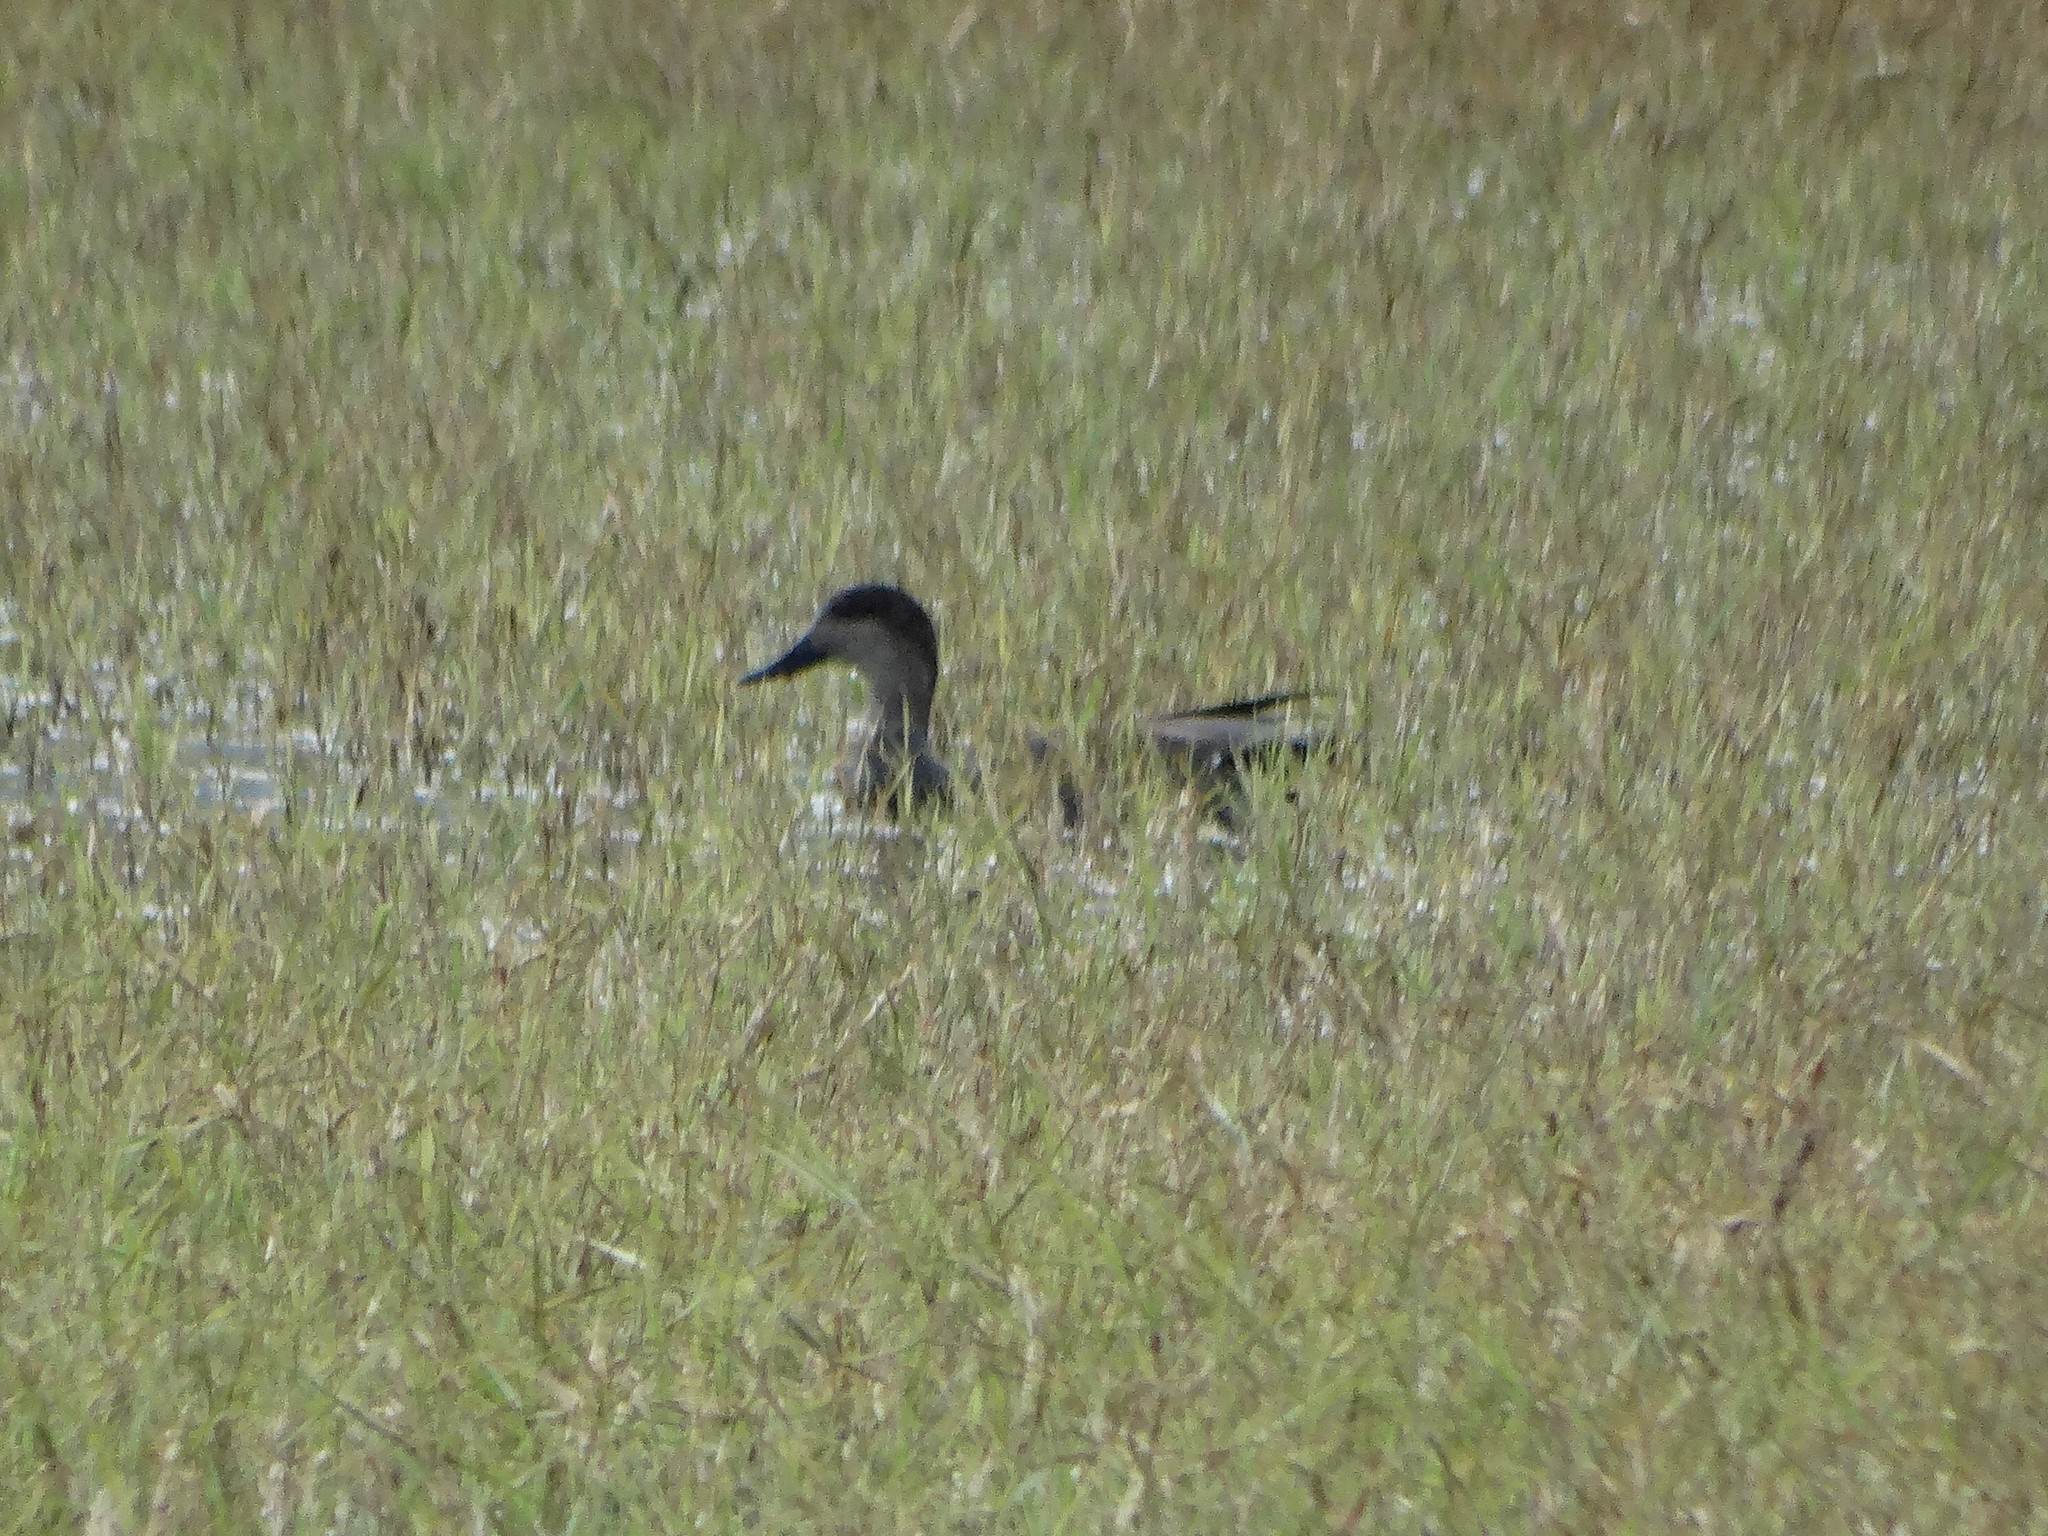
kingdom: Animalia
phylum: Chordata
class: Aves
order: Anseriformes
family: Anatidae
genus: Mareca
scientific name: Mareca strepera
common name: Gadwall
